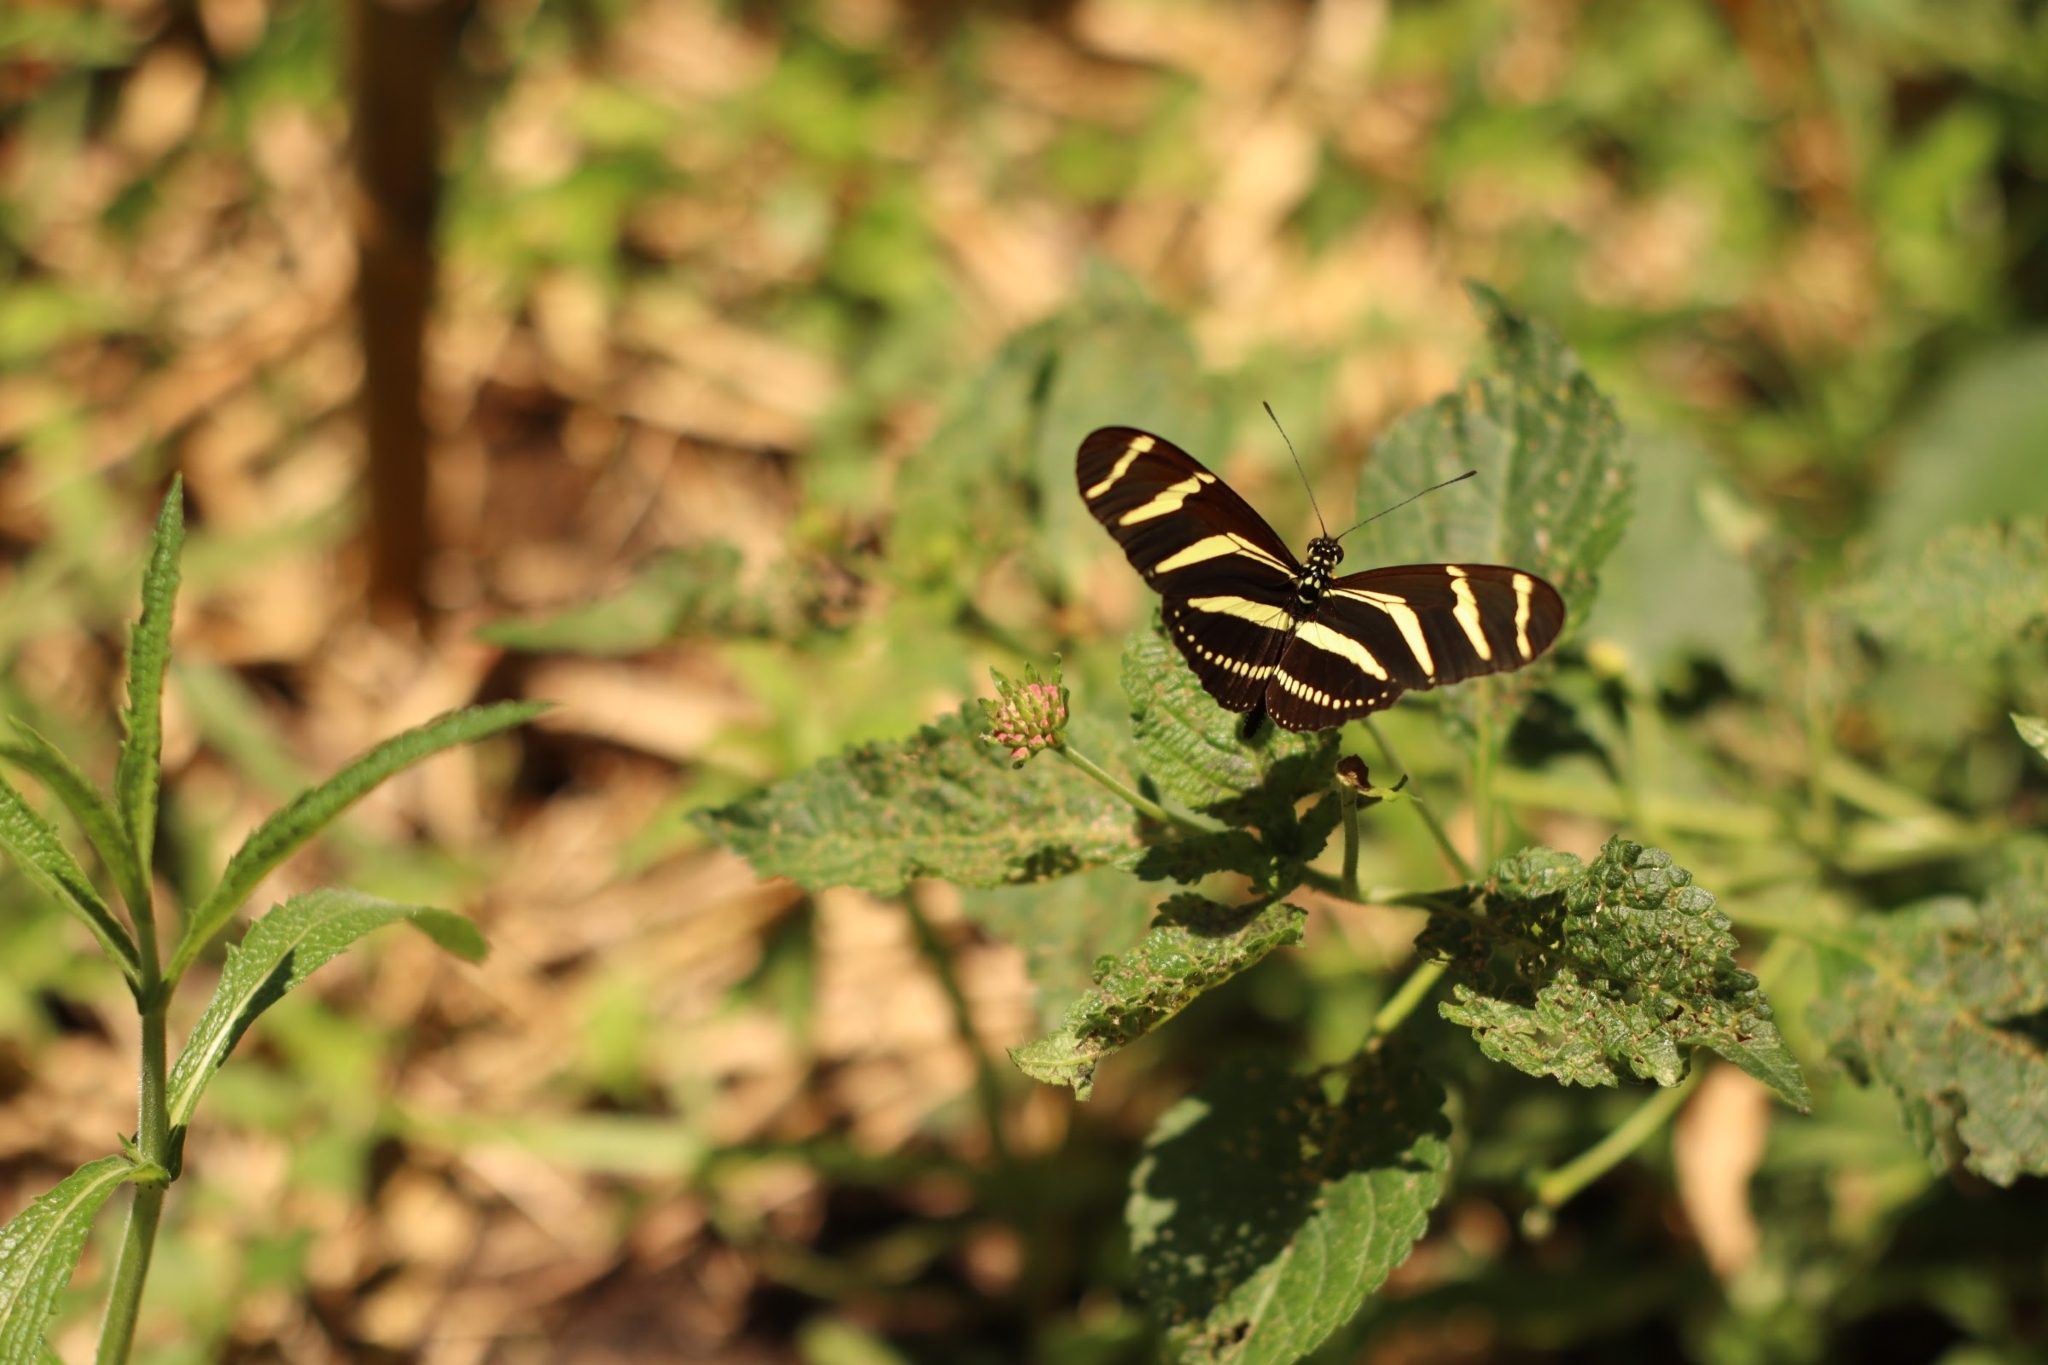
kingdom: Animalia
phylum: Arthropoda
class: Insecta
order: Lepidoptera
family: Nymphalidae
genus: Heliconius
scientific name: Heliconius charithonia
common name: Zebra long wing
